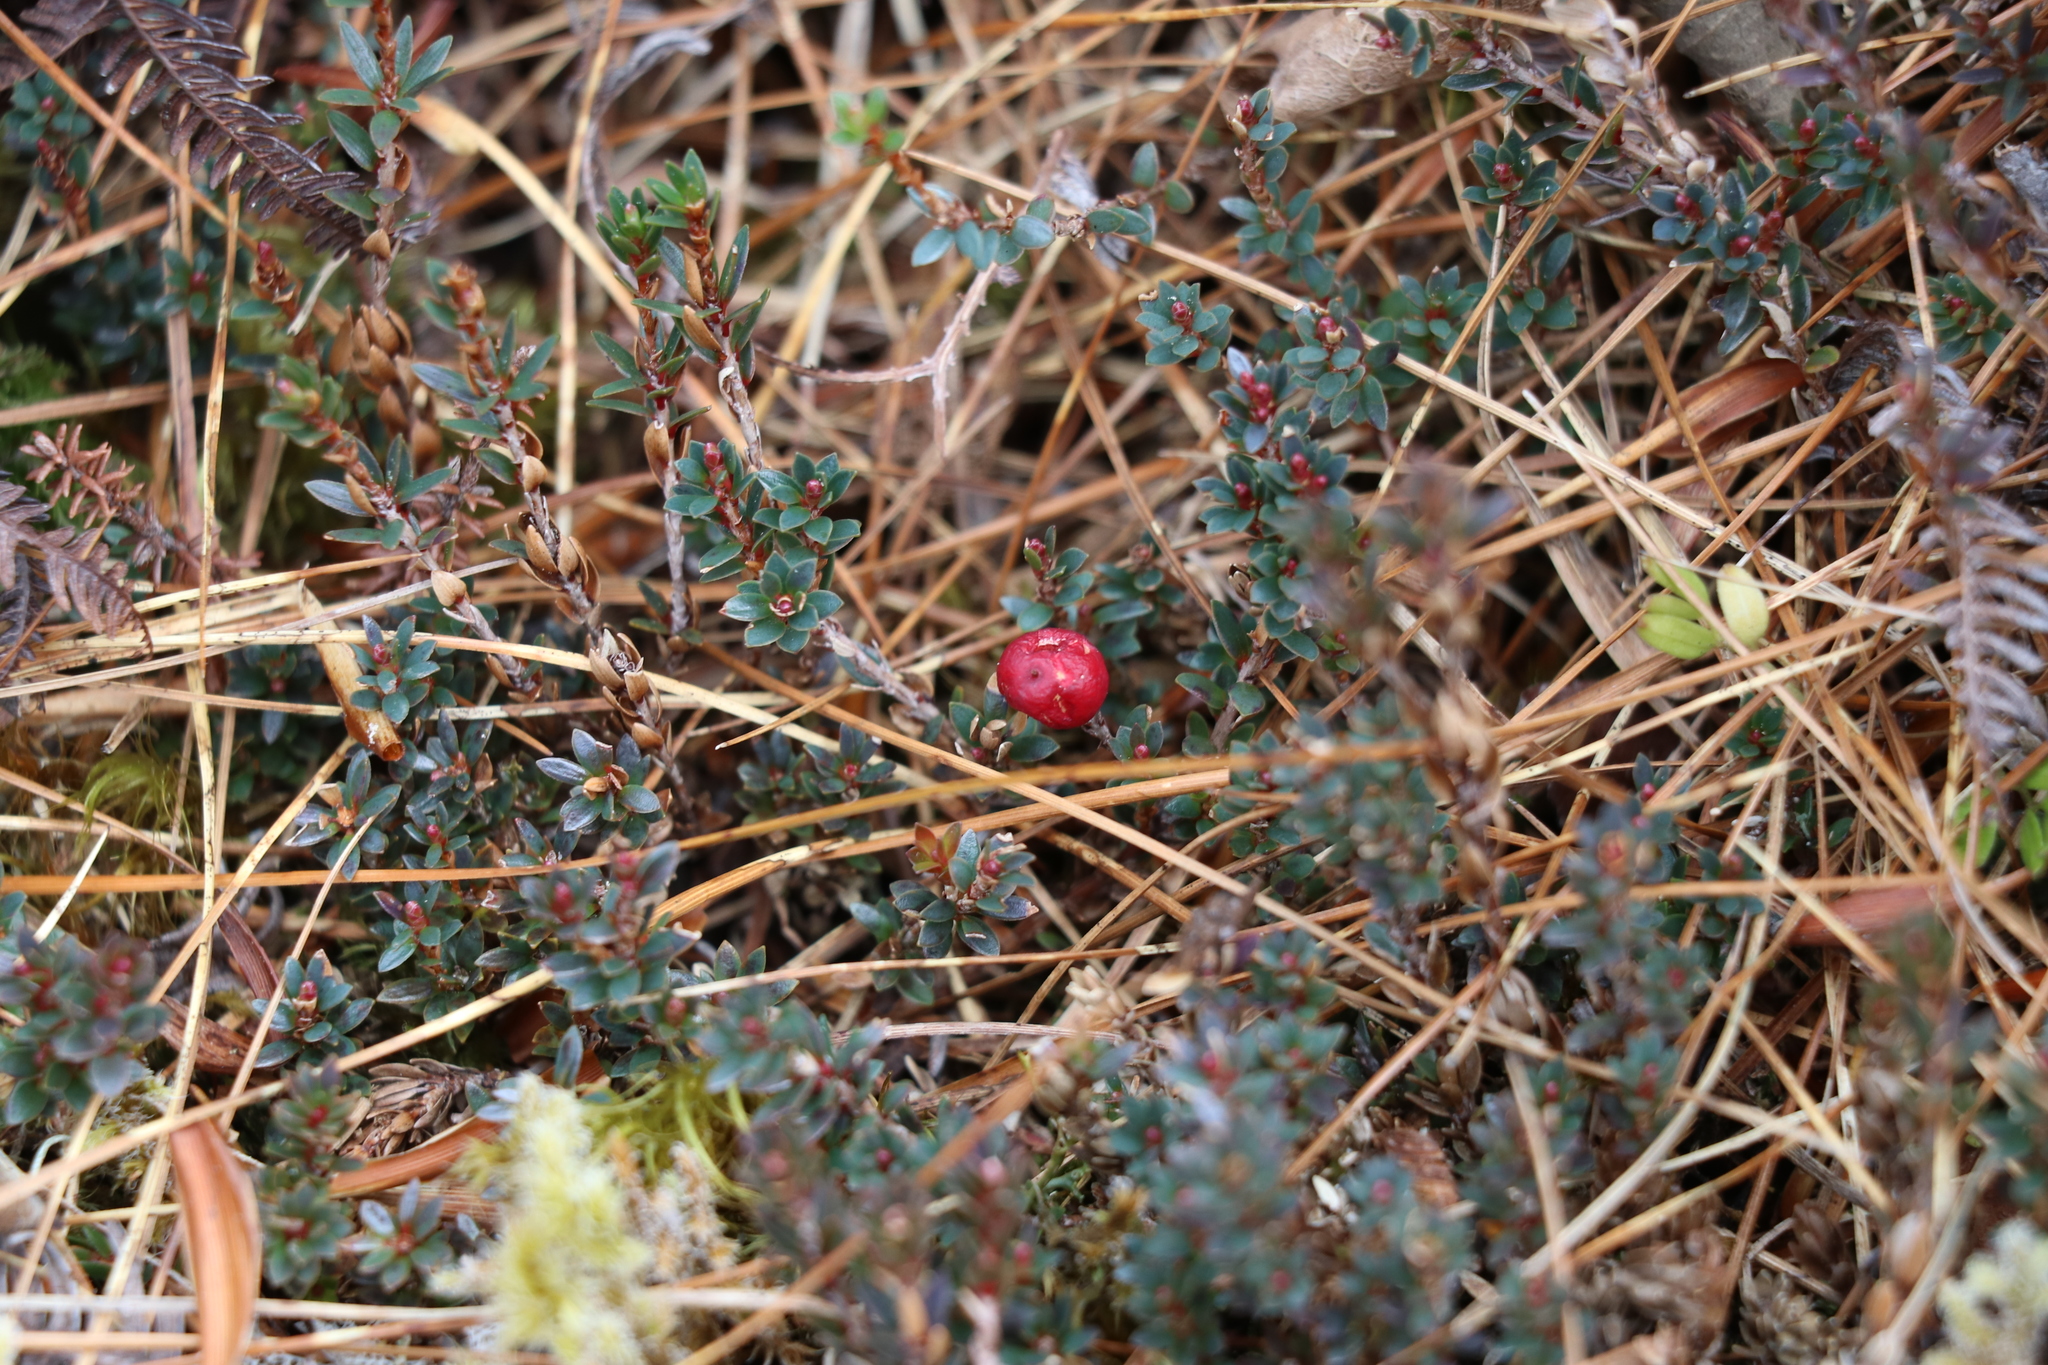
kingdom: Plantae
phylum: Tracheophyta
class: Magnoliopsida
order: Ericales
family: Ericaceae
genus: Pentachondra
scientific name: Pentachondra pumila
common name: Carpet-heath
